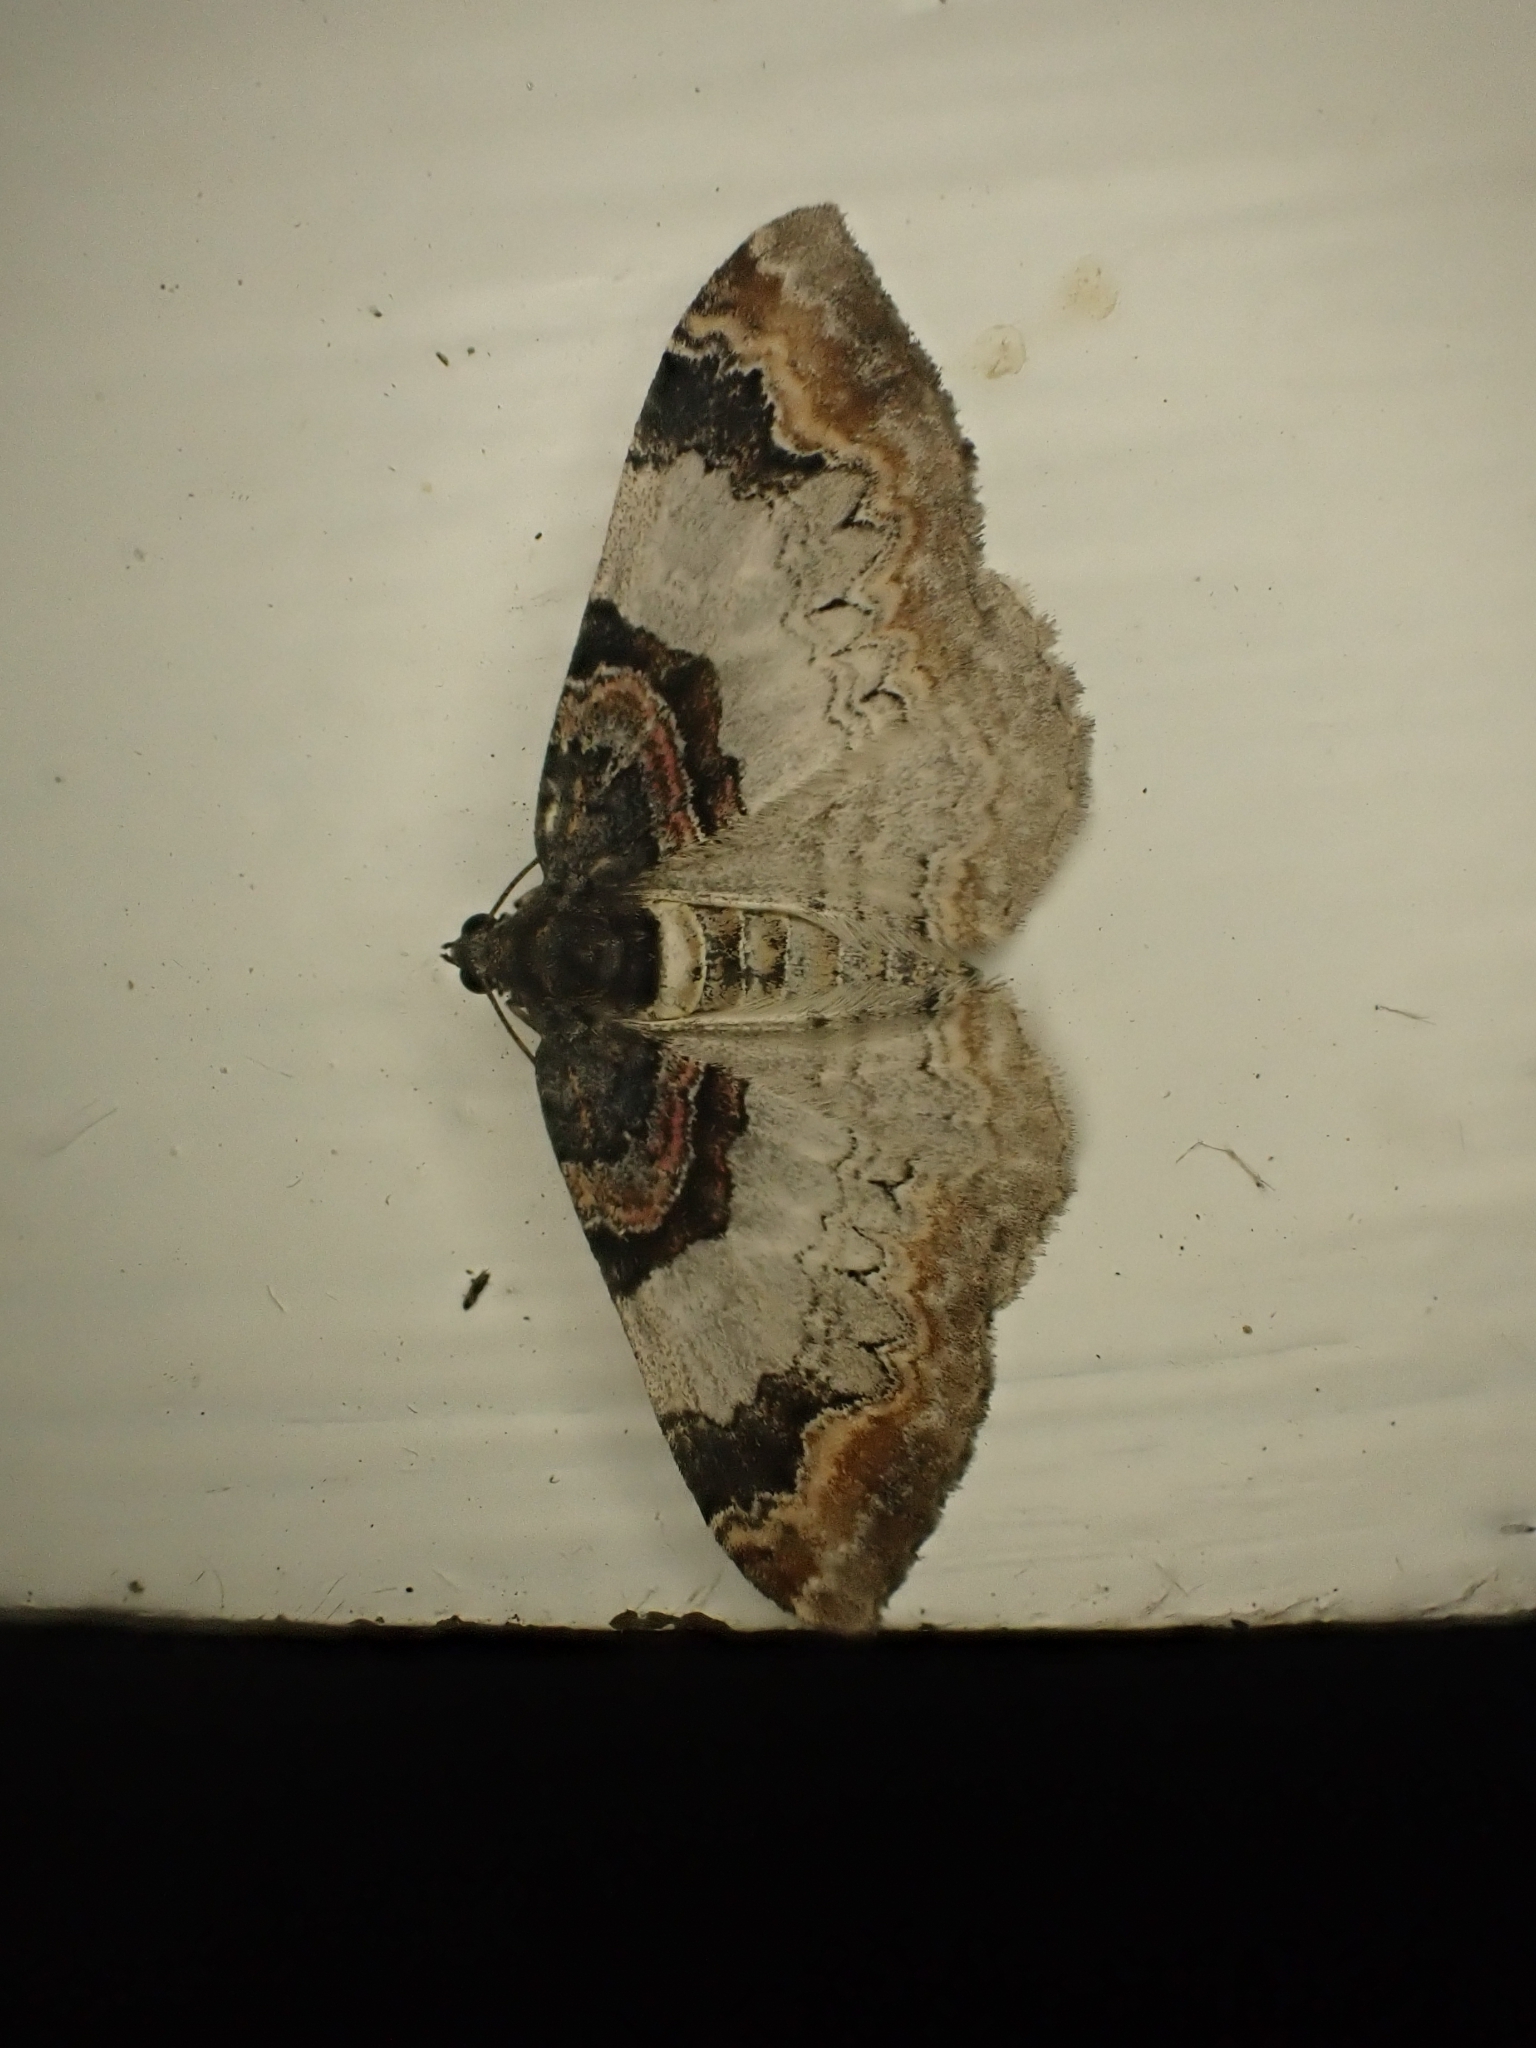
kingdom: Animalia
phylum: Arthropoda
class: Insecta
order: Lepidoptera
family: Geometridae
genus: Catarhoe
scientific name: Catarhoe cuculata
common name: Royal mantle
